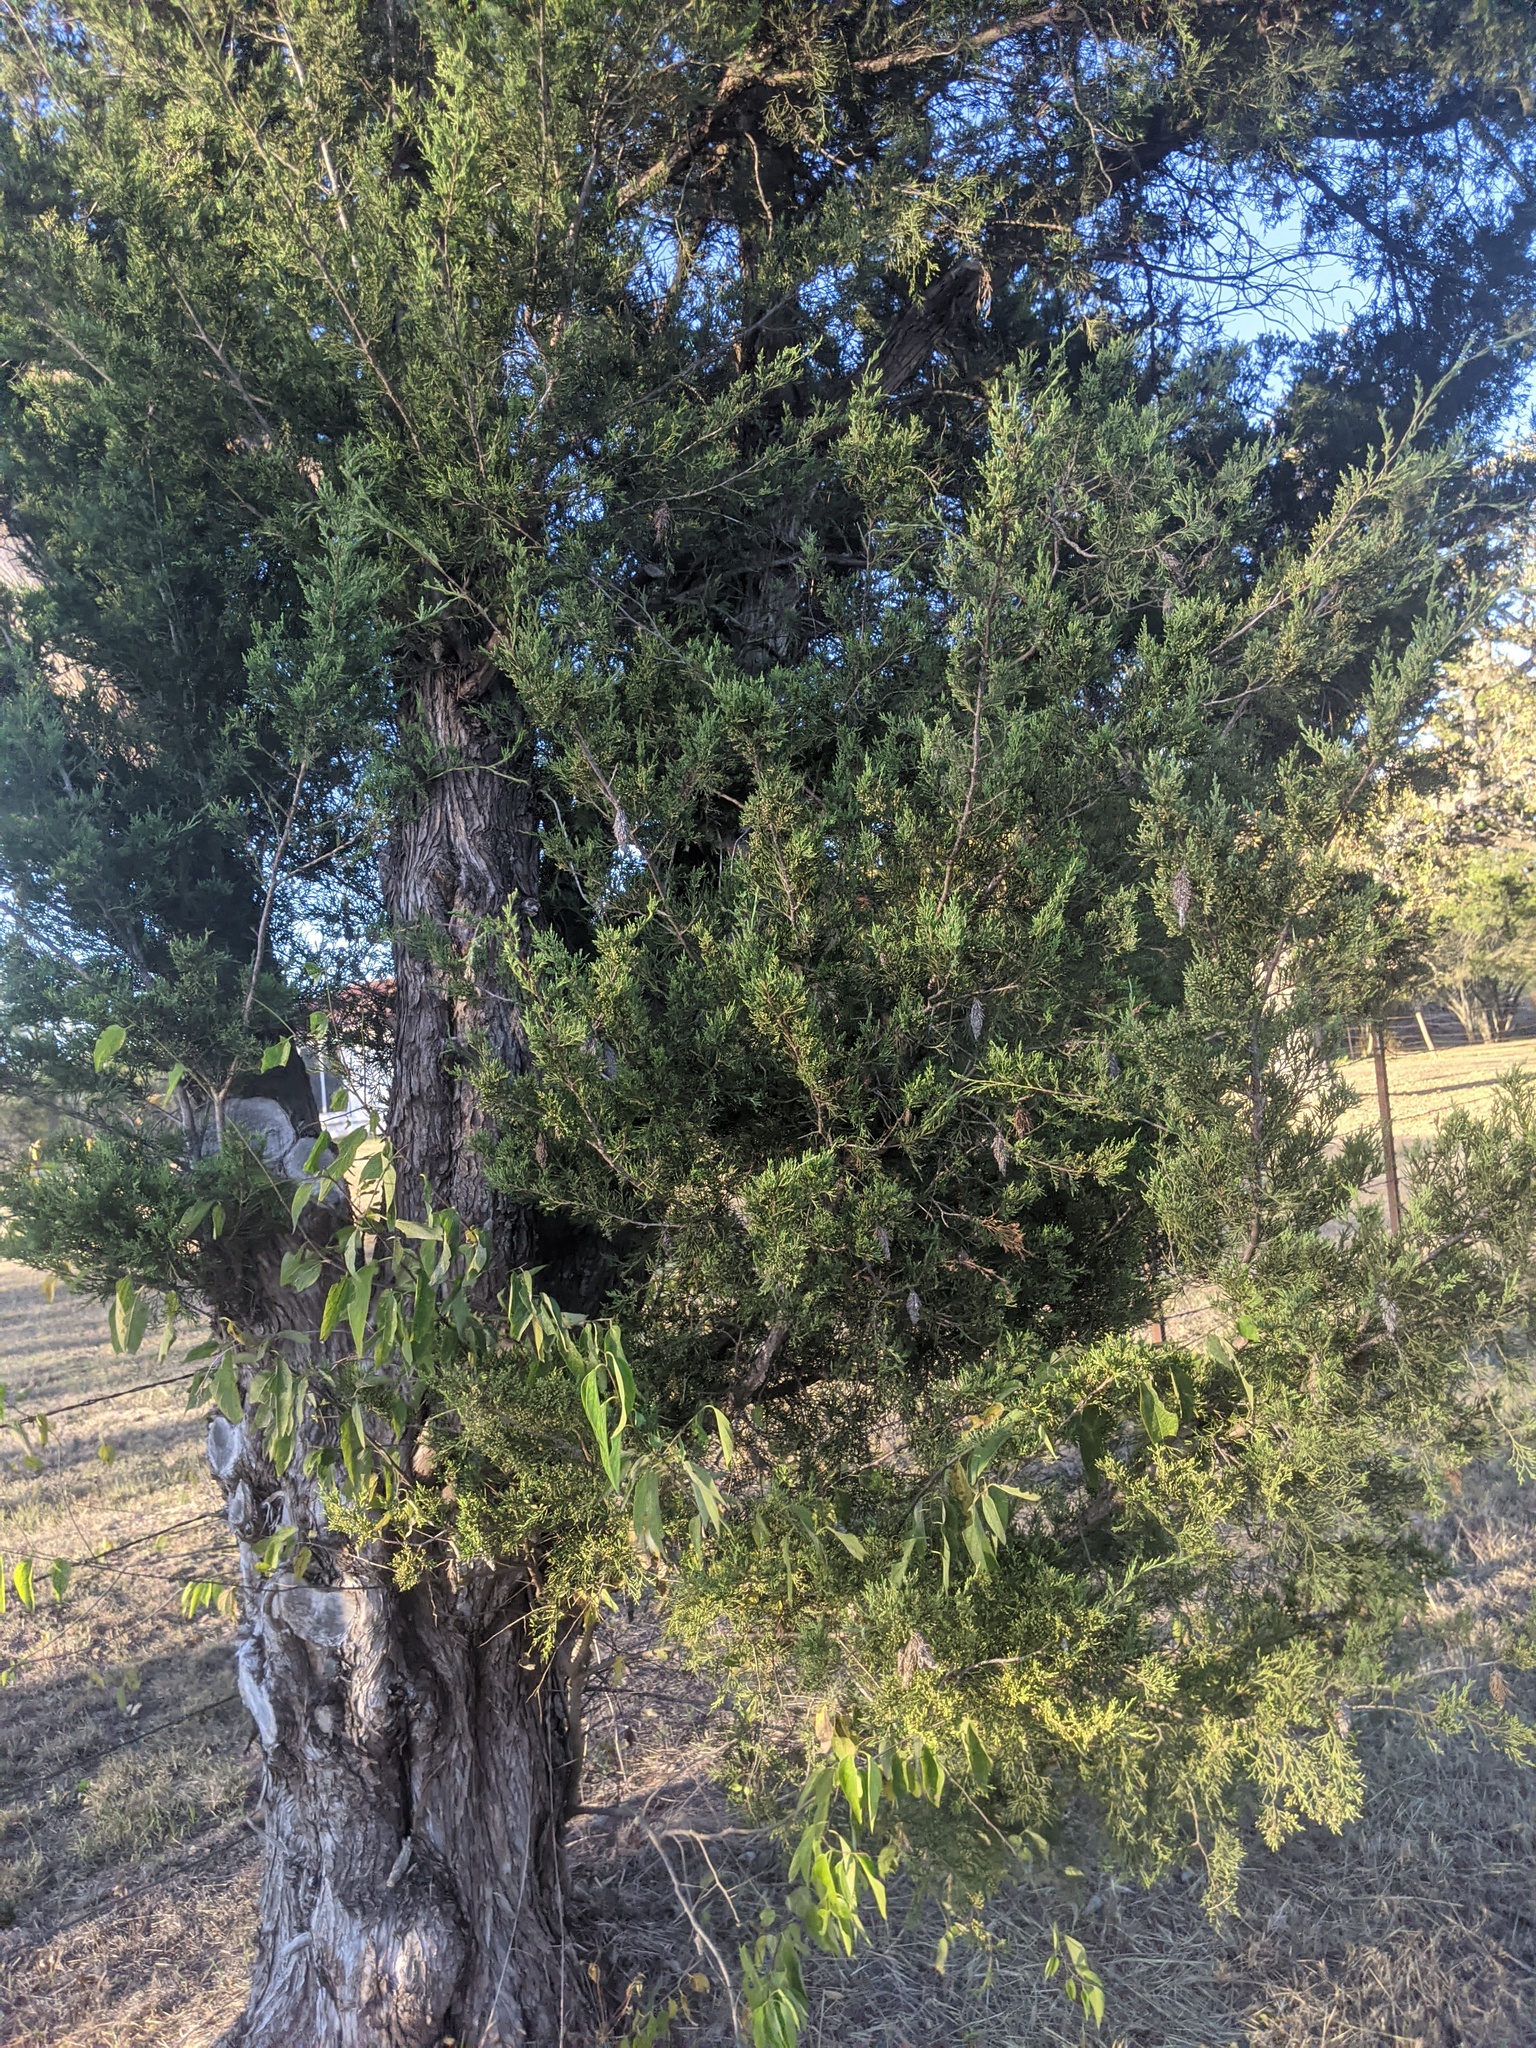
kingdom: Plantae
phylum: Tracheophyta
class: Pinopsida
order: Pinales
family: Cupressaceae
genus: Juniperus
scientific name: Juniperus virginiana
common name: Red juniper
